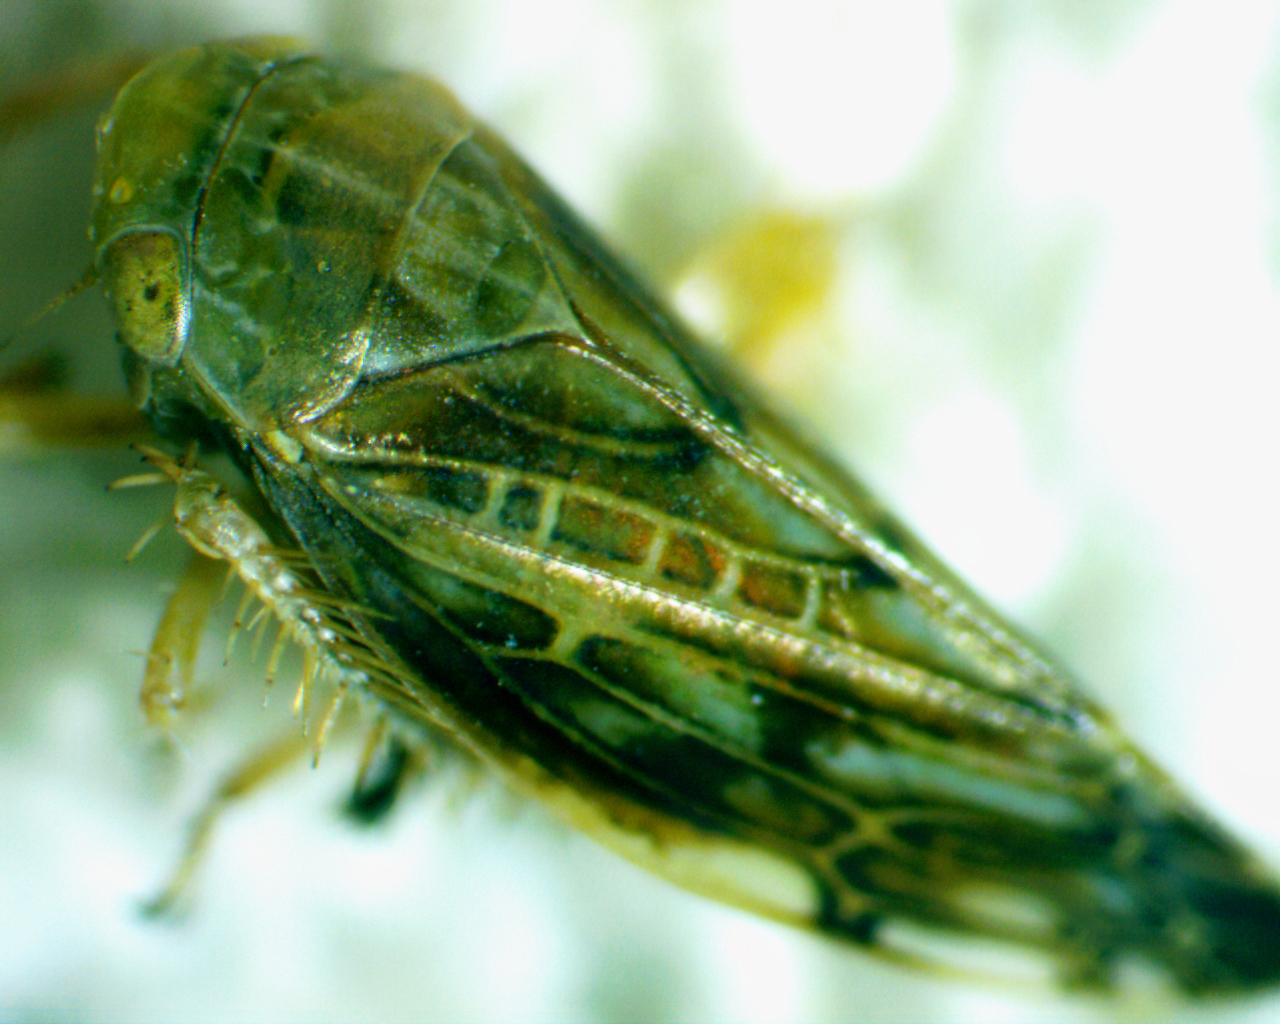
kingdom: Animalia
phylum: Arthropoda
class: Insecta
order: Hemiptera
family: Cicadellidae
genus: Acinopterus
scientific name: Acinopterus acuminatus
